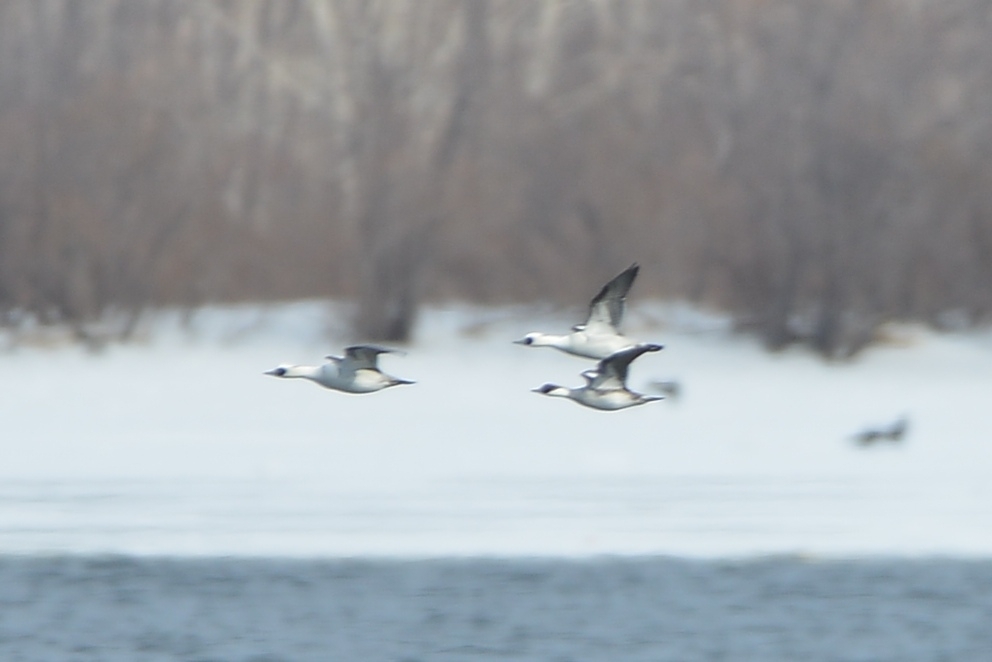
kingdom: Animalia
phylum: Chordata
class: Aves
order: Anseriformes
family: Anatidae
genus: Mergellus
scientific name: Mergellus albellus
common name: Smew
